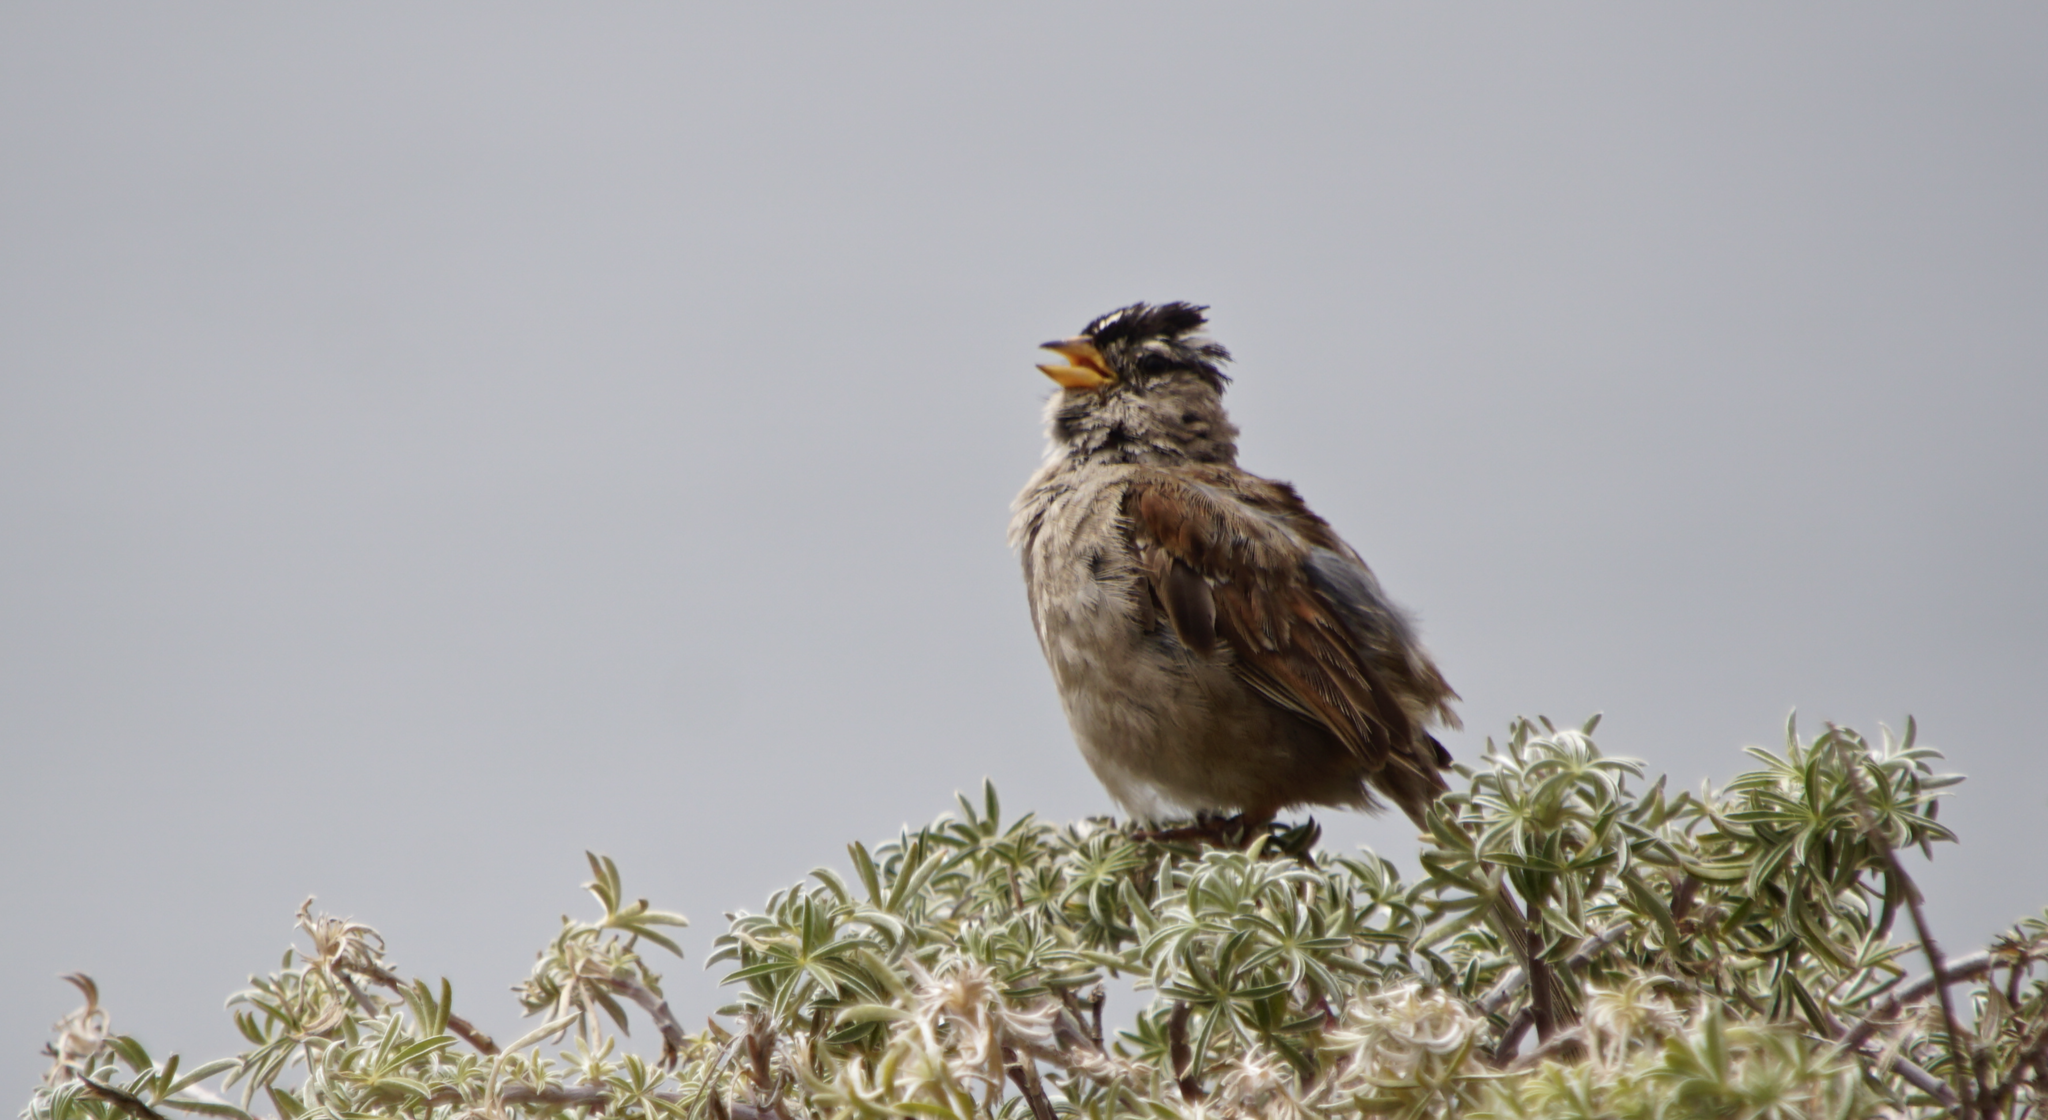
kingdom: Animalia
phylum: Chordata
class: Aves
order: Passeriformes
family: Passerellidae
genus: Zonotrichia
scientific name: Zonotrichia leucophrys
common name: White-crowned sparrow
